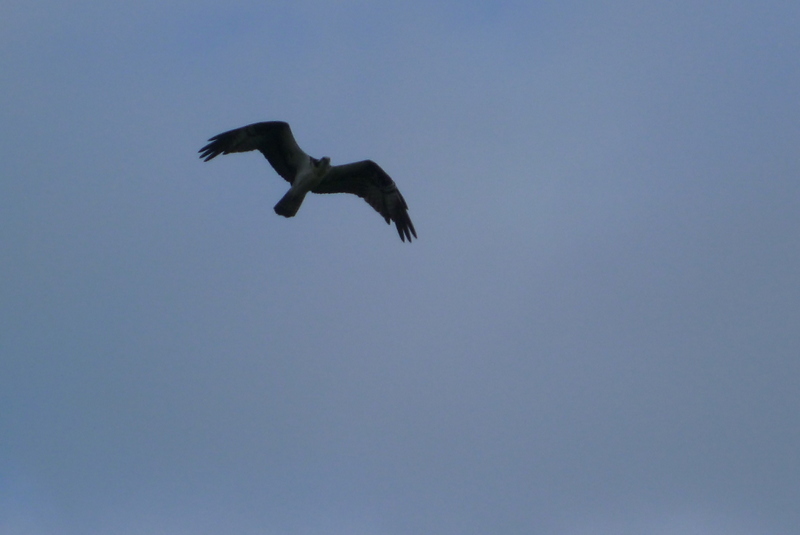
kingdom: Animalia
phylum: Chordata
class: Aves
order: Accipitriformes
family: Pandionidae
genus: Pandion
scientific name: Pandion haliaetus
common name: Osprey
